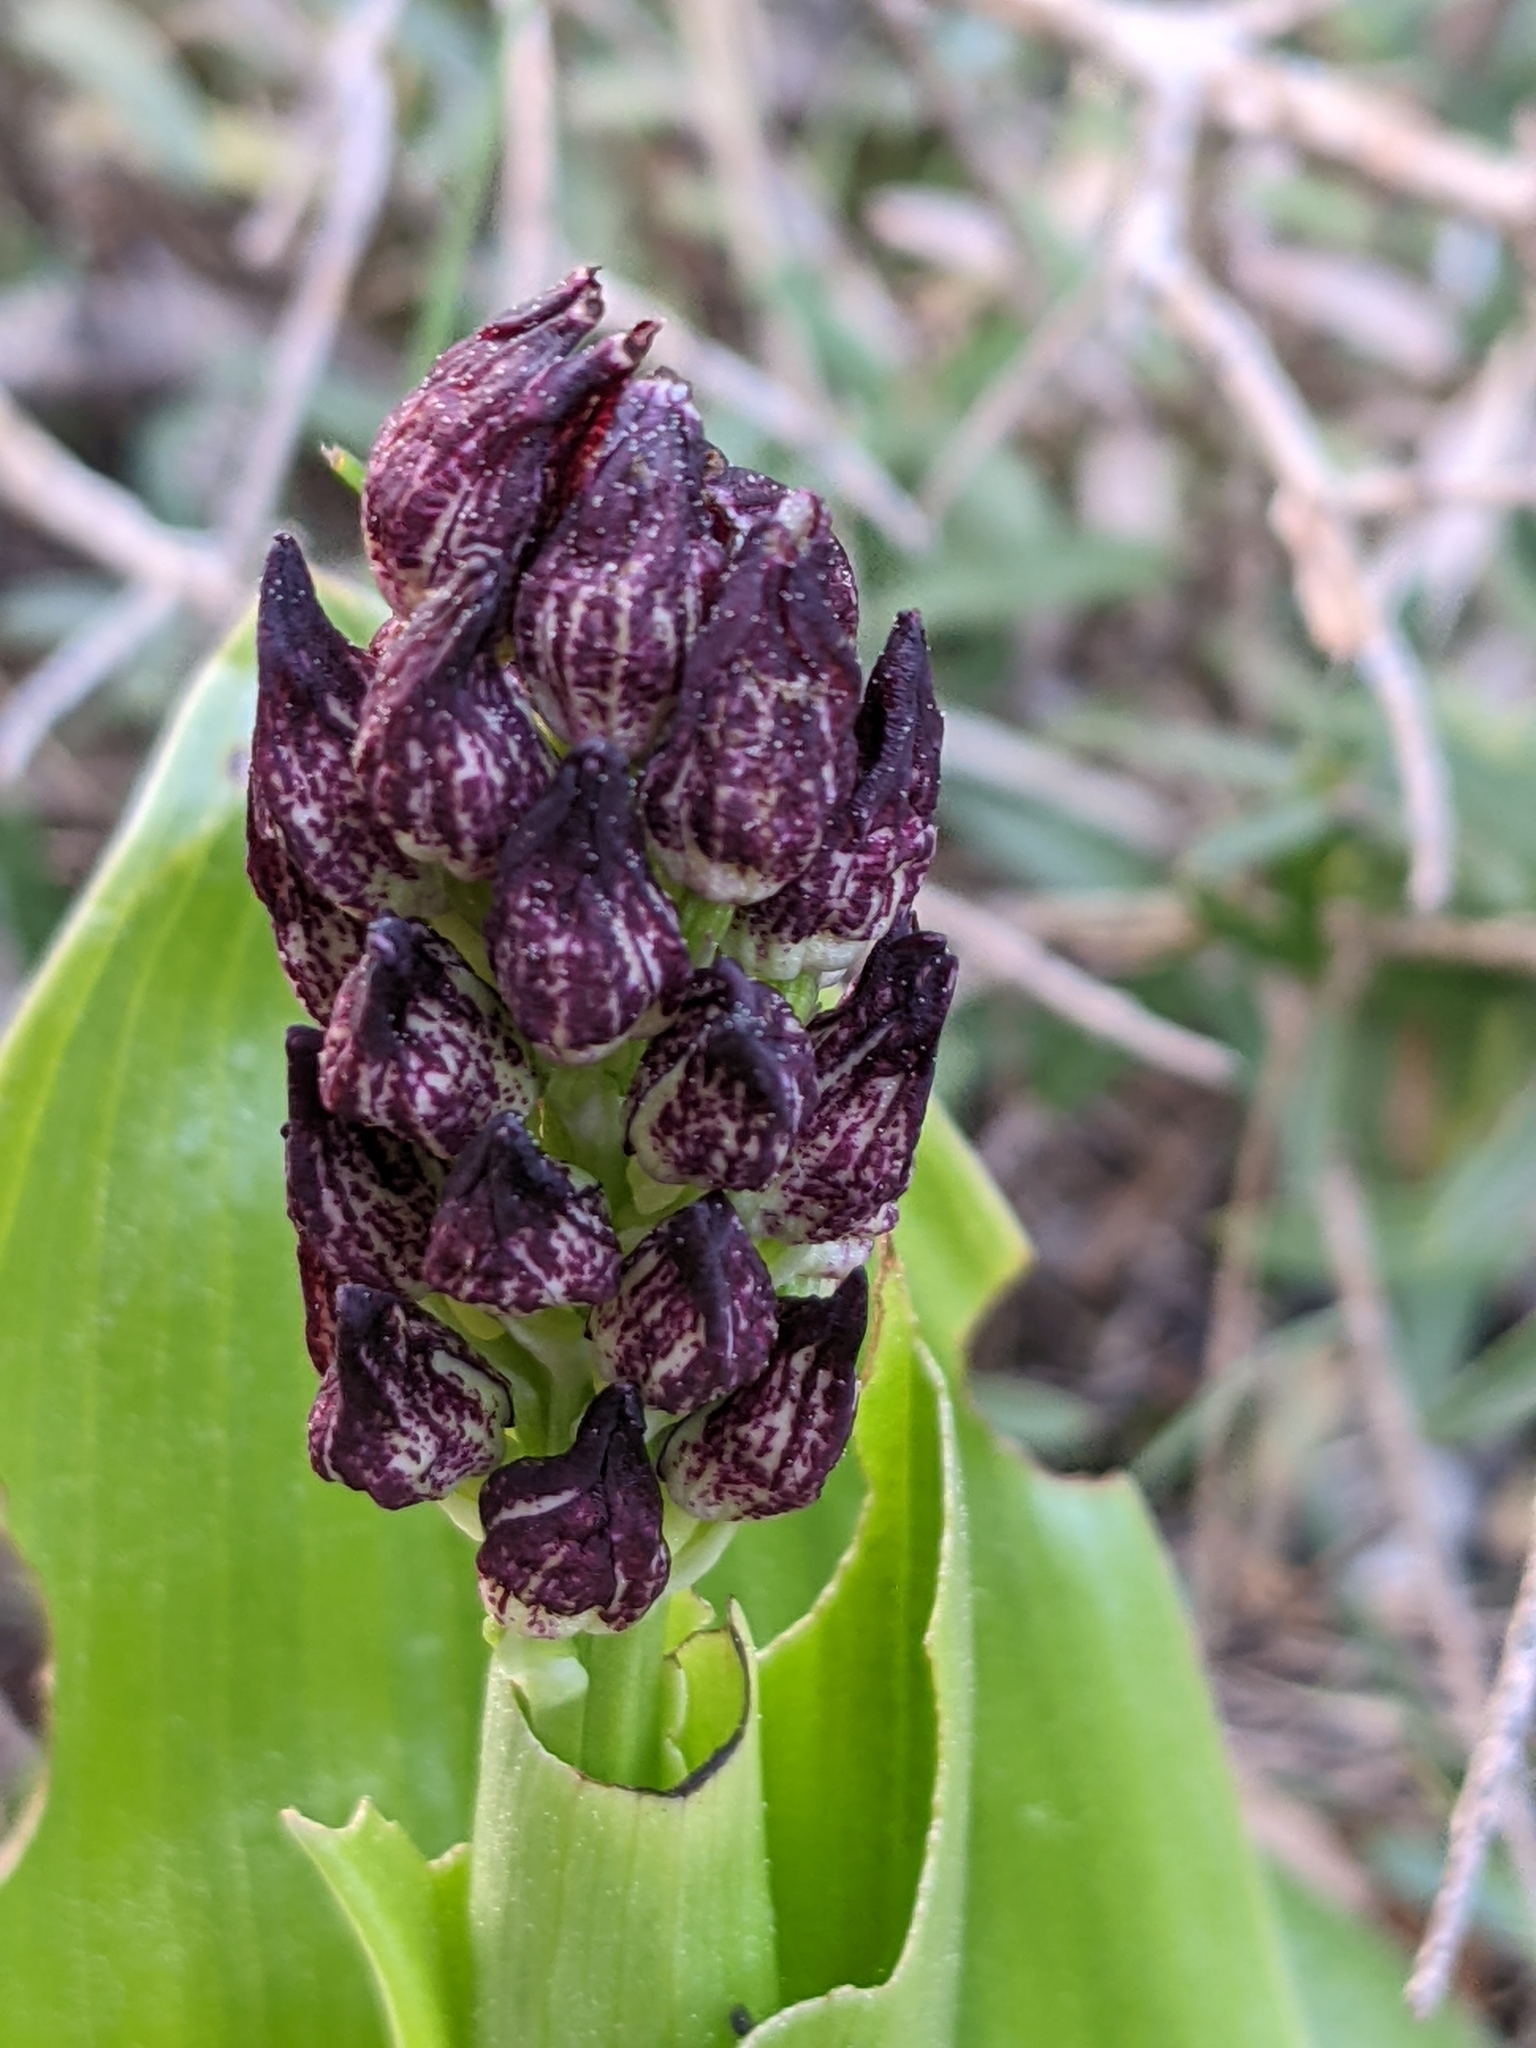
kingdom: Plantae
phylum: Tracheophyta
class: Liliopsida
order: Asparagales
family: Orchidaceae
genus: Orchis
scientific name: Orchis purpurea
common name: Lady orchid
